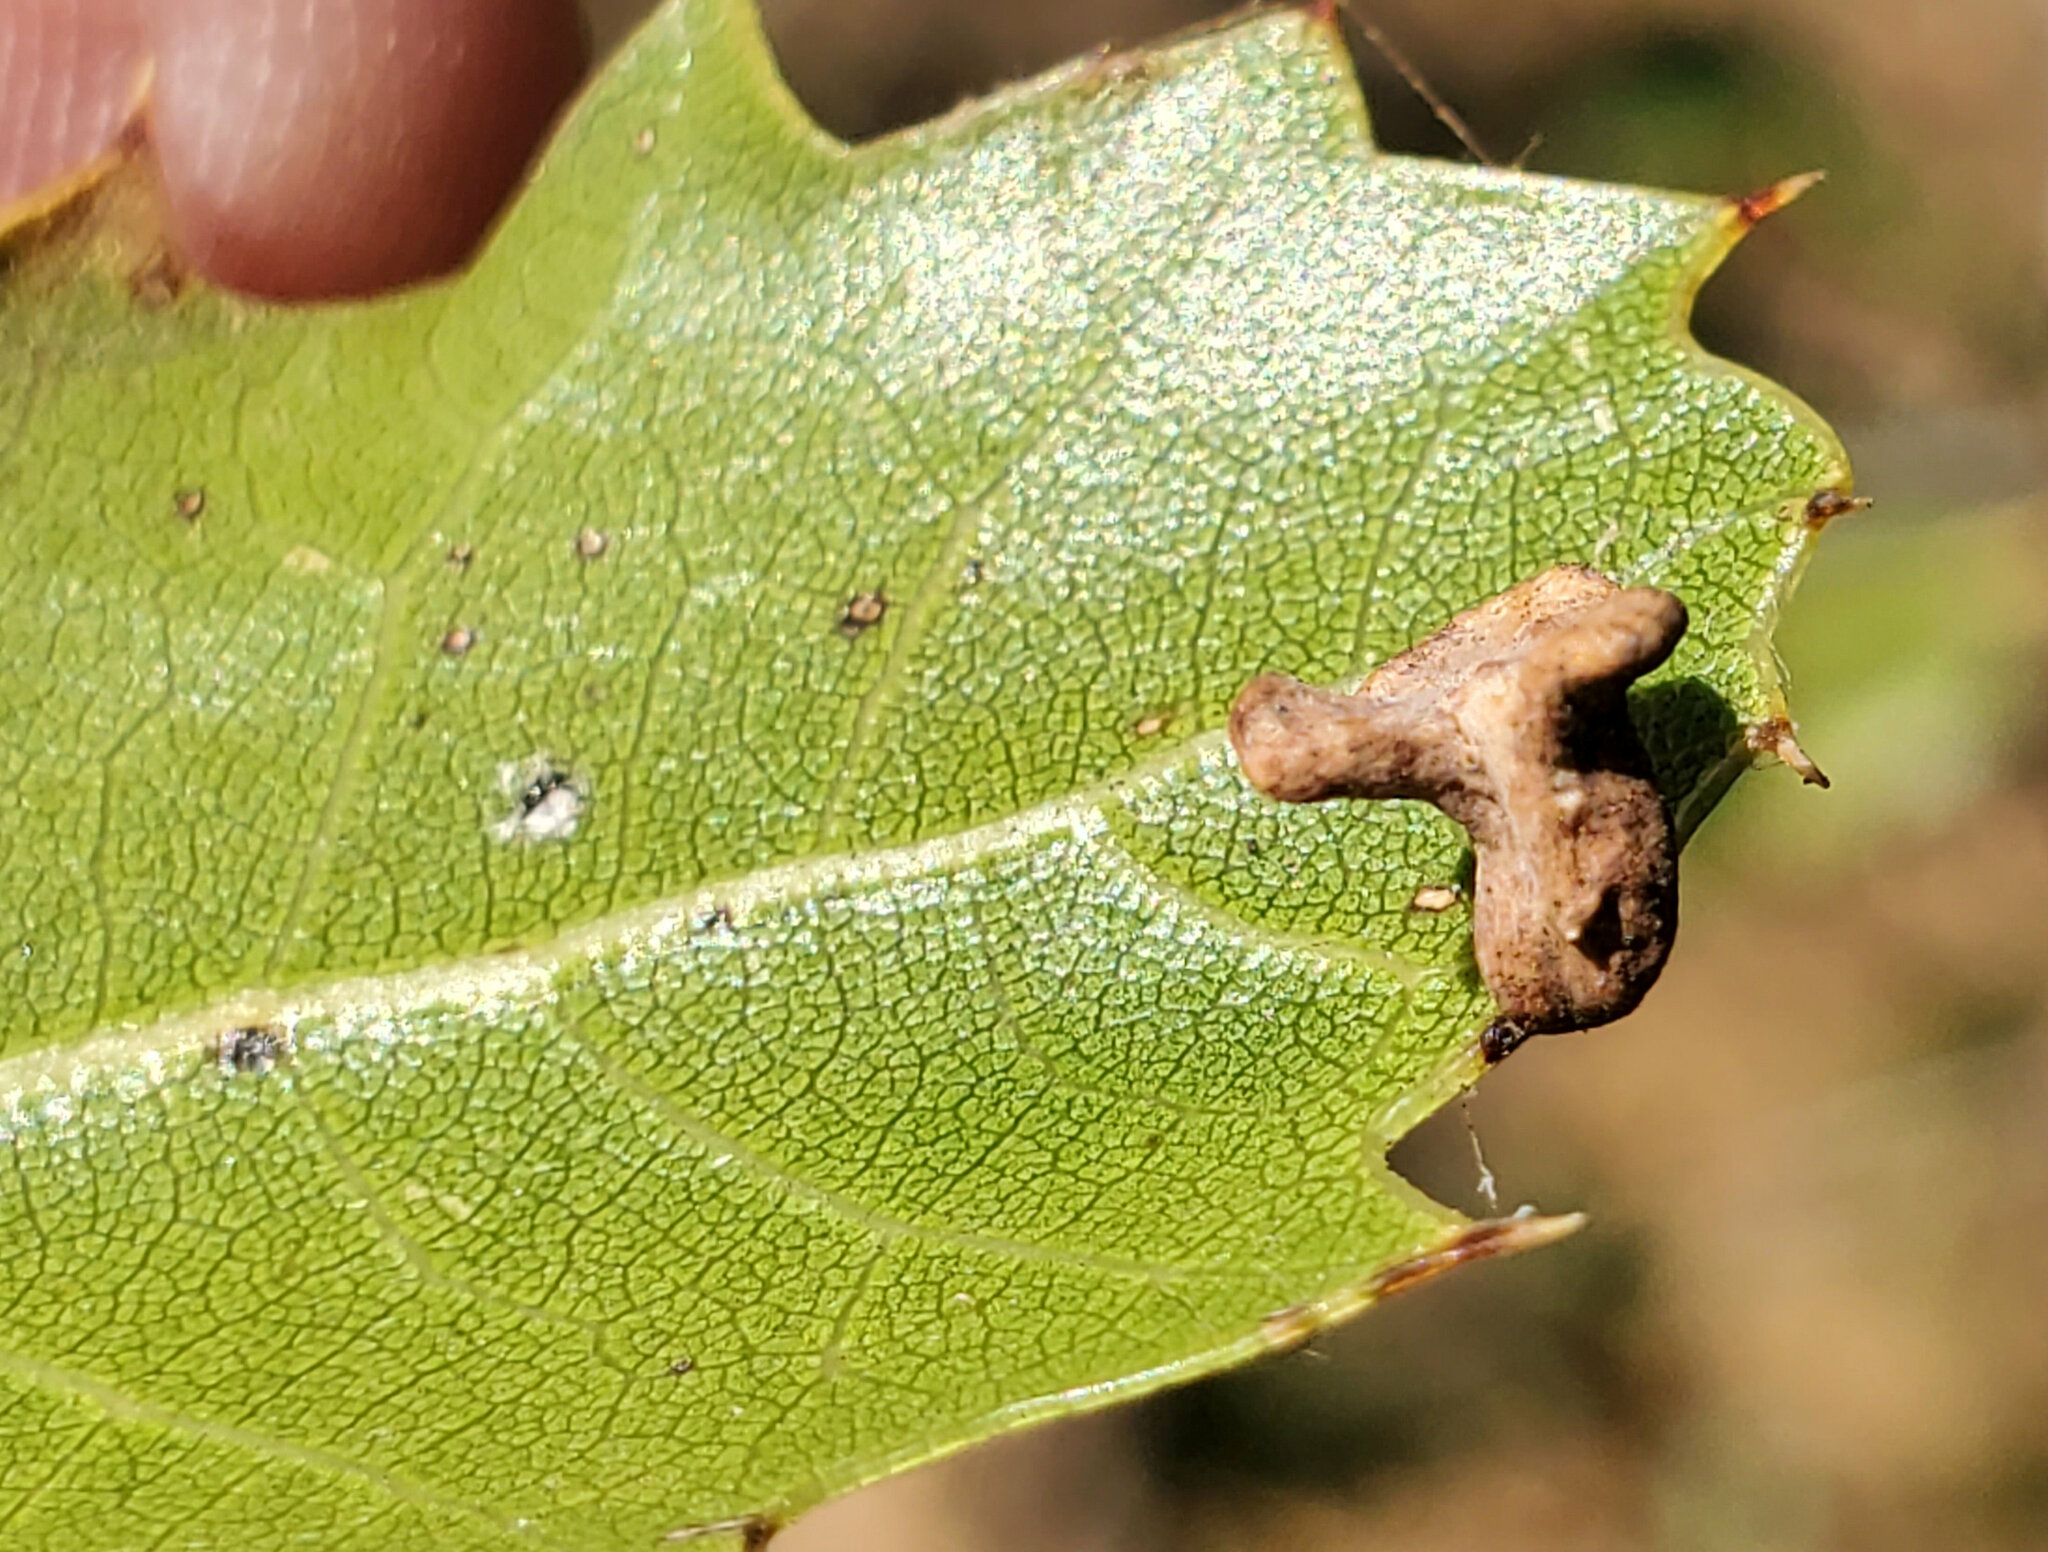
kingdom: Animalia
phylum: Arthropoda
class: Insecta
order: Hymenoptera
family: Cynipidae
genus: Amphibolips
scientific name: Amphibolips quercuspomiformis
